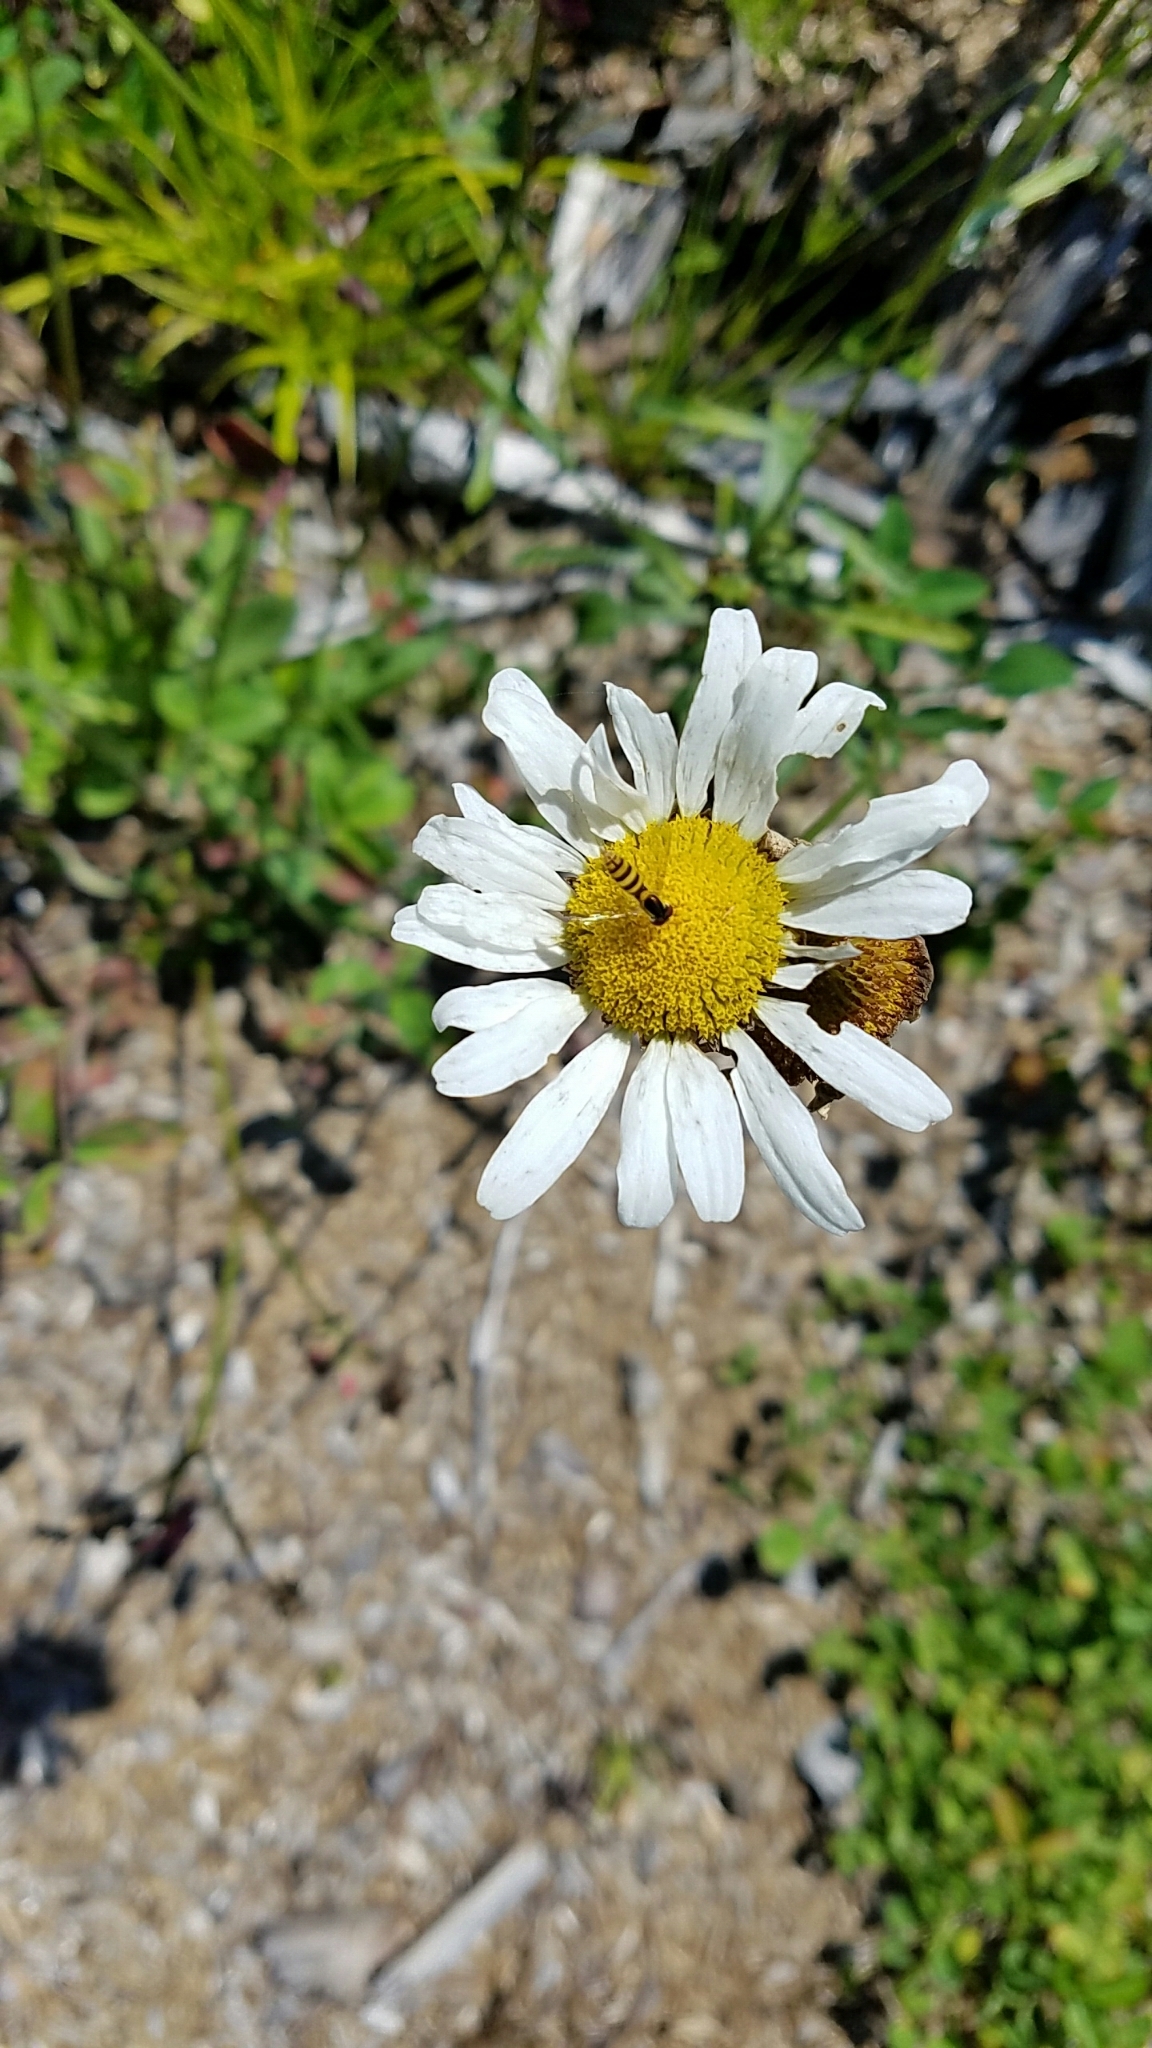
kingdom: Plantae
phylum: Tracheophyta
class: Magnoliopsida
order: Asterales
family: Asteraceae
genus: Leucanthemum
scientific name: Leucanthemum vulgare
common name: Oxeye daisy
